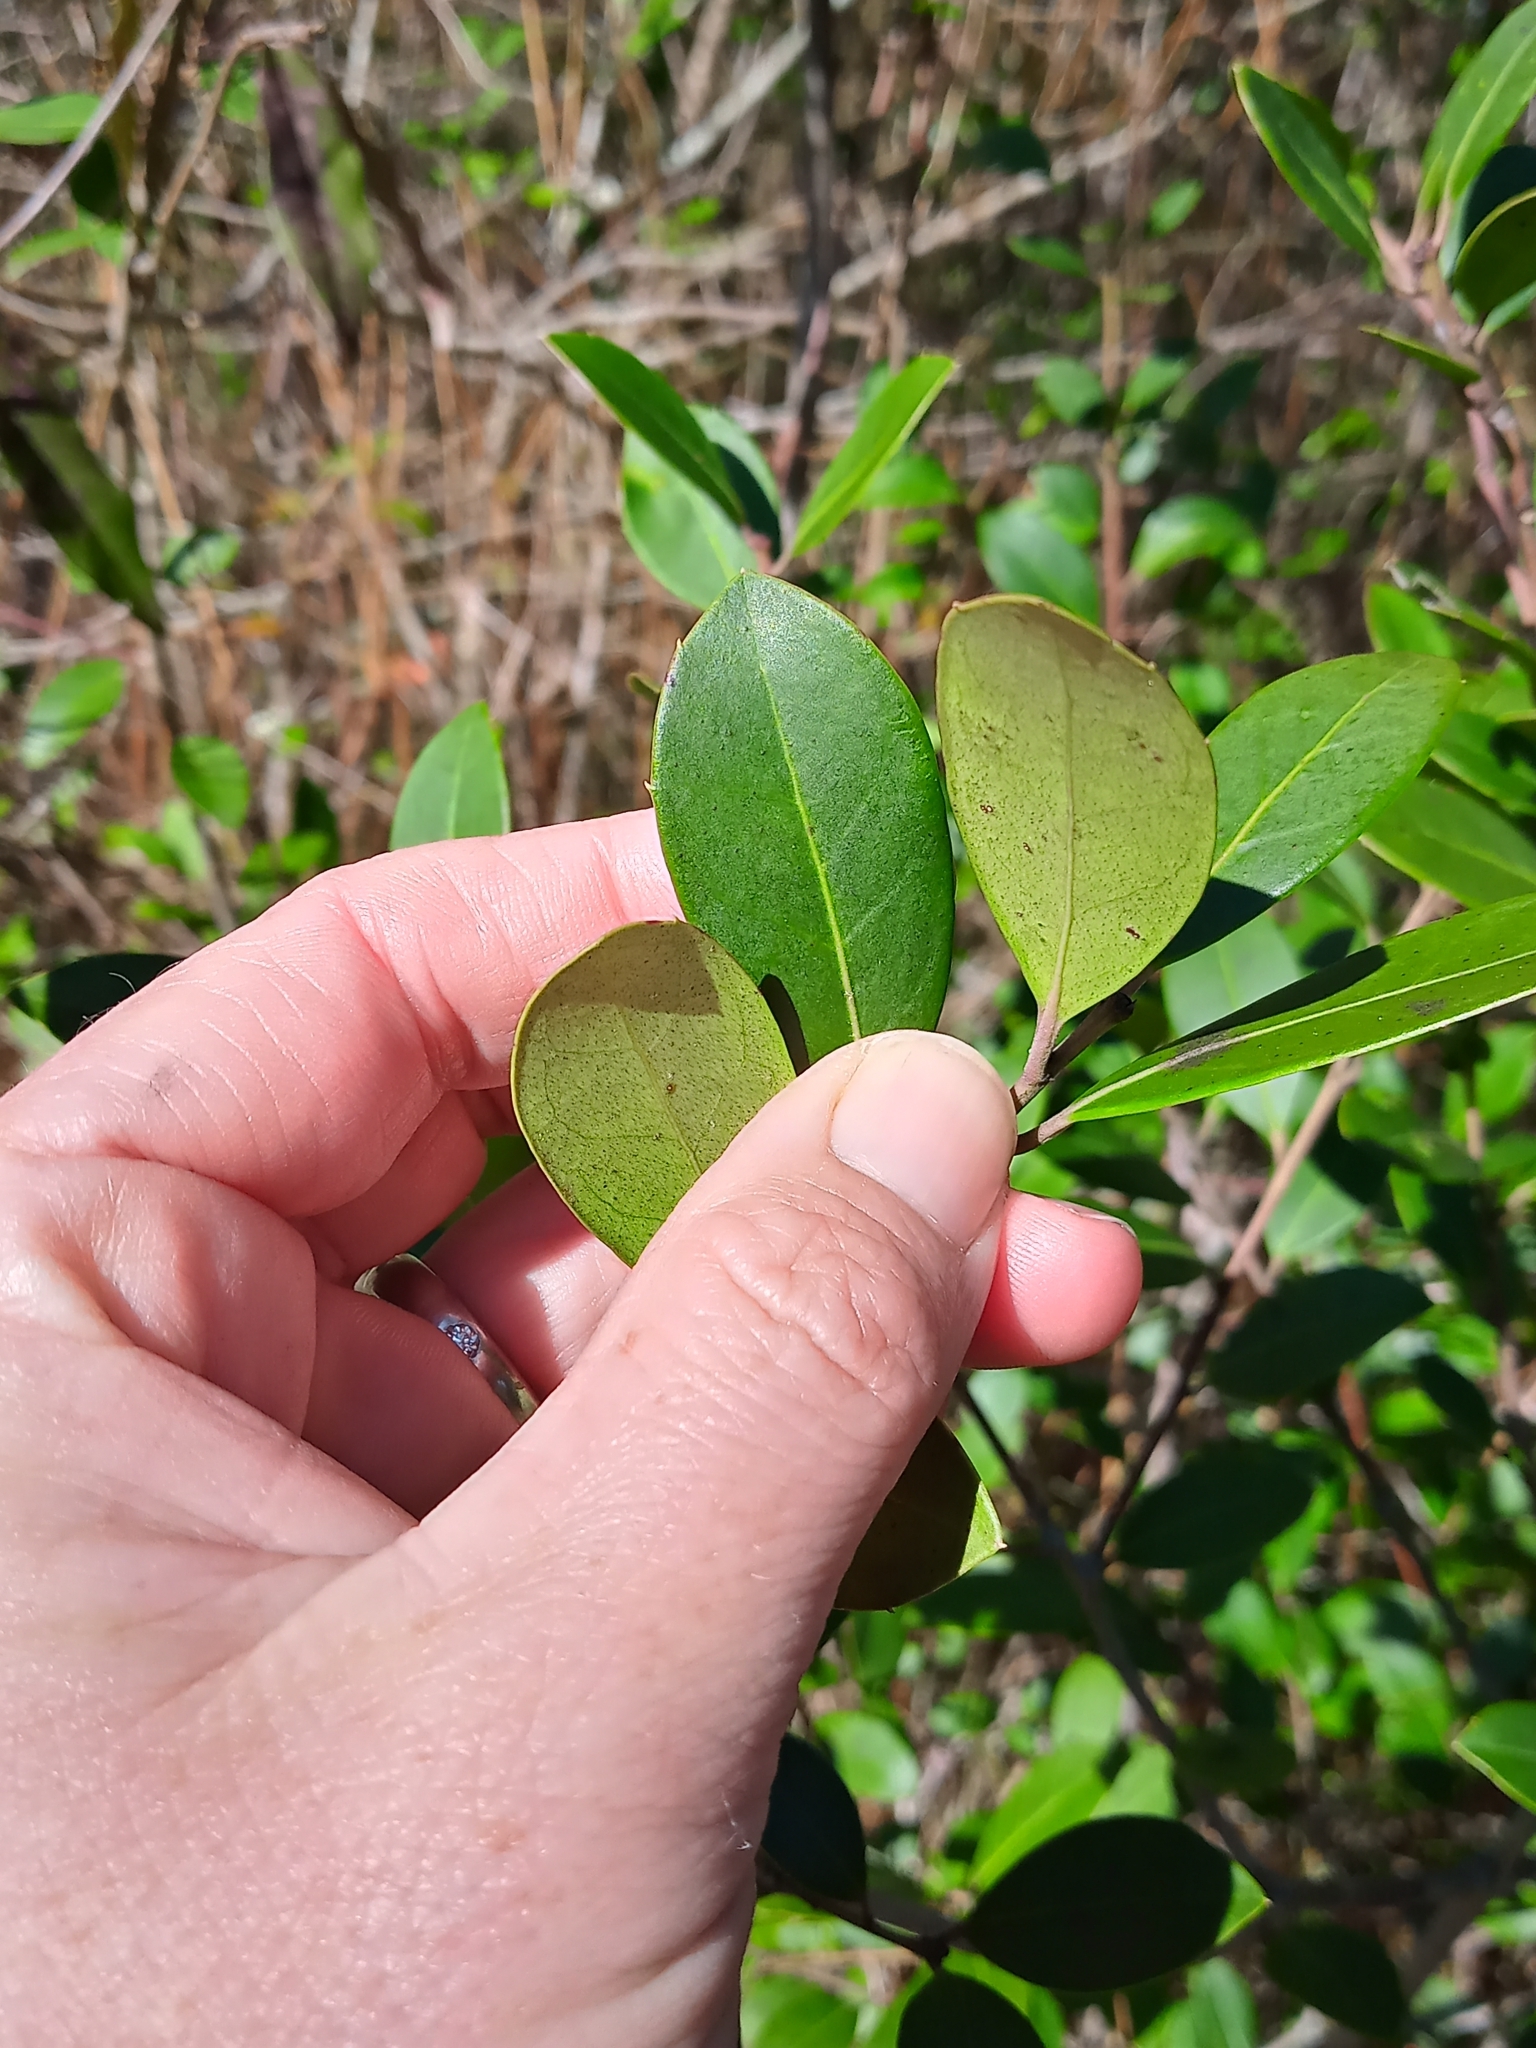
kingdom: Plantae
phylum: Tracheophyta
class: Magnoliopsida
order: Aquifoliales
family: Aquifoliaceae
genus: Ilex
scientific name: Ilex coriacea
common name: Sweet gallberry
